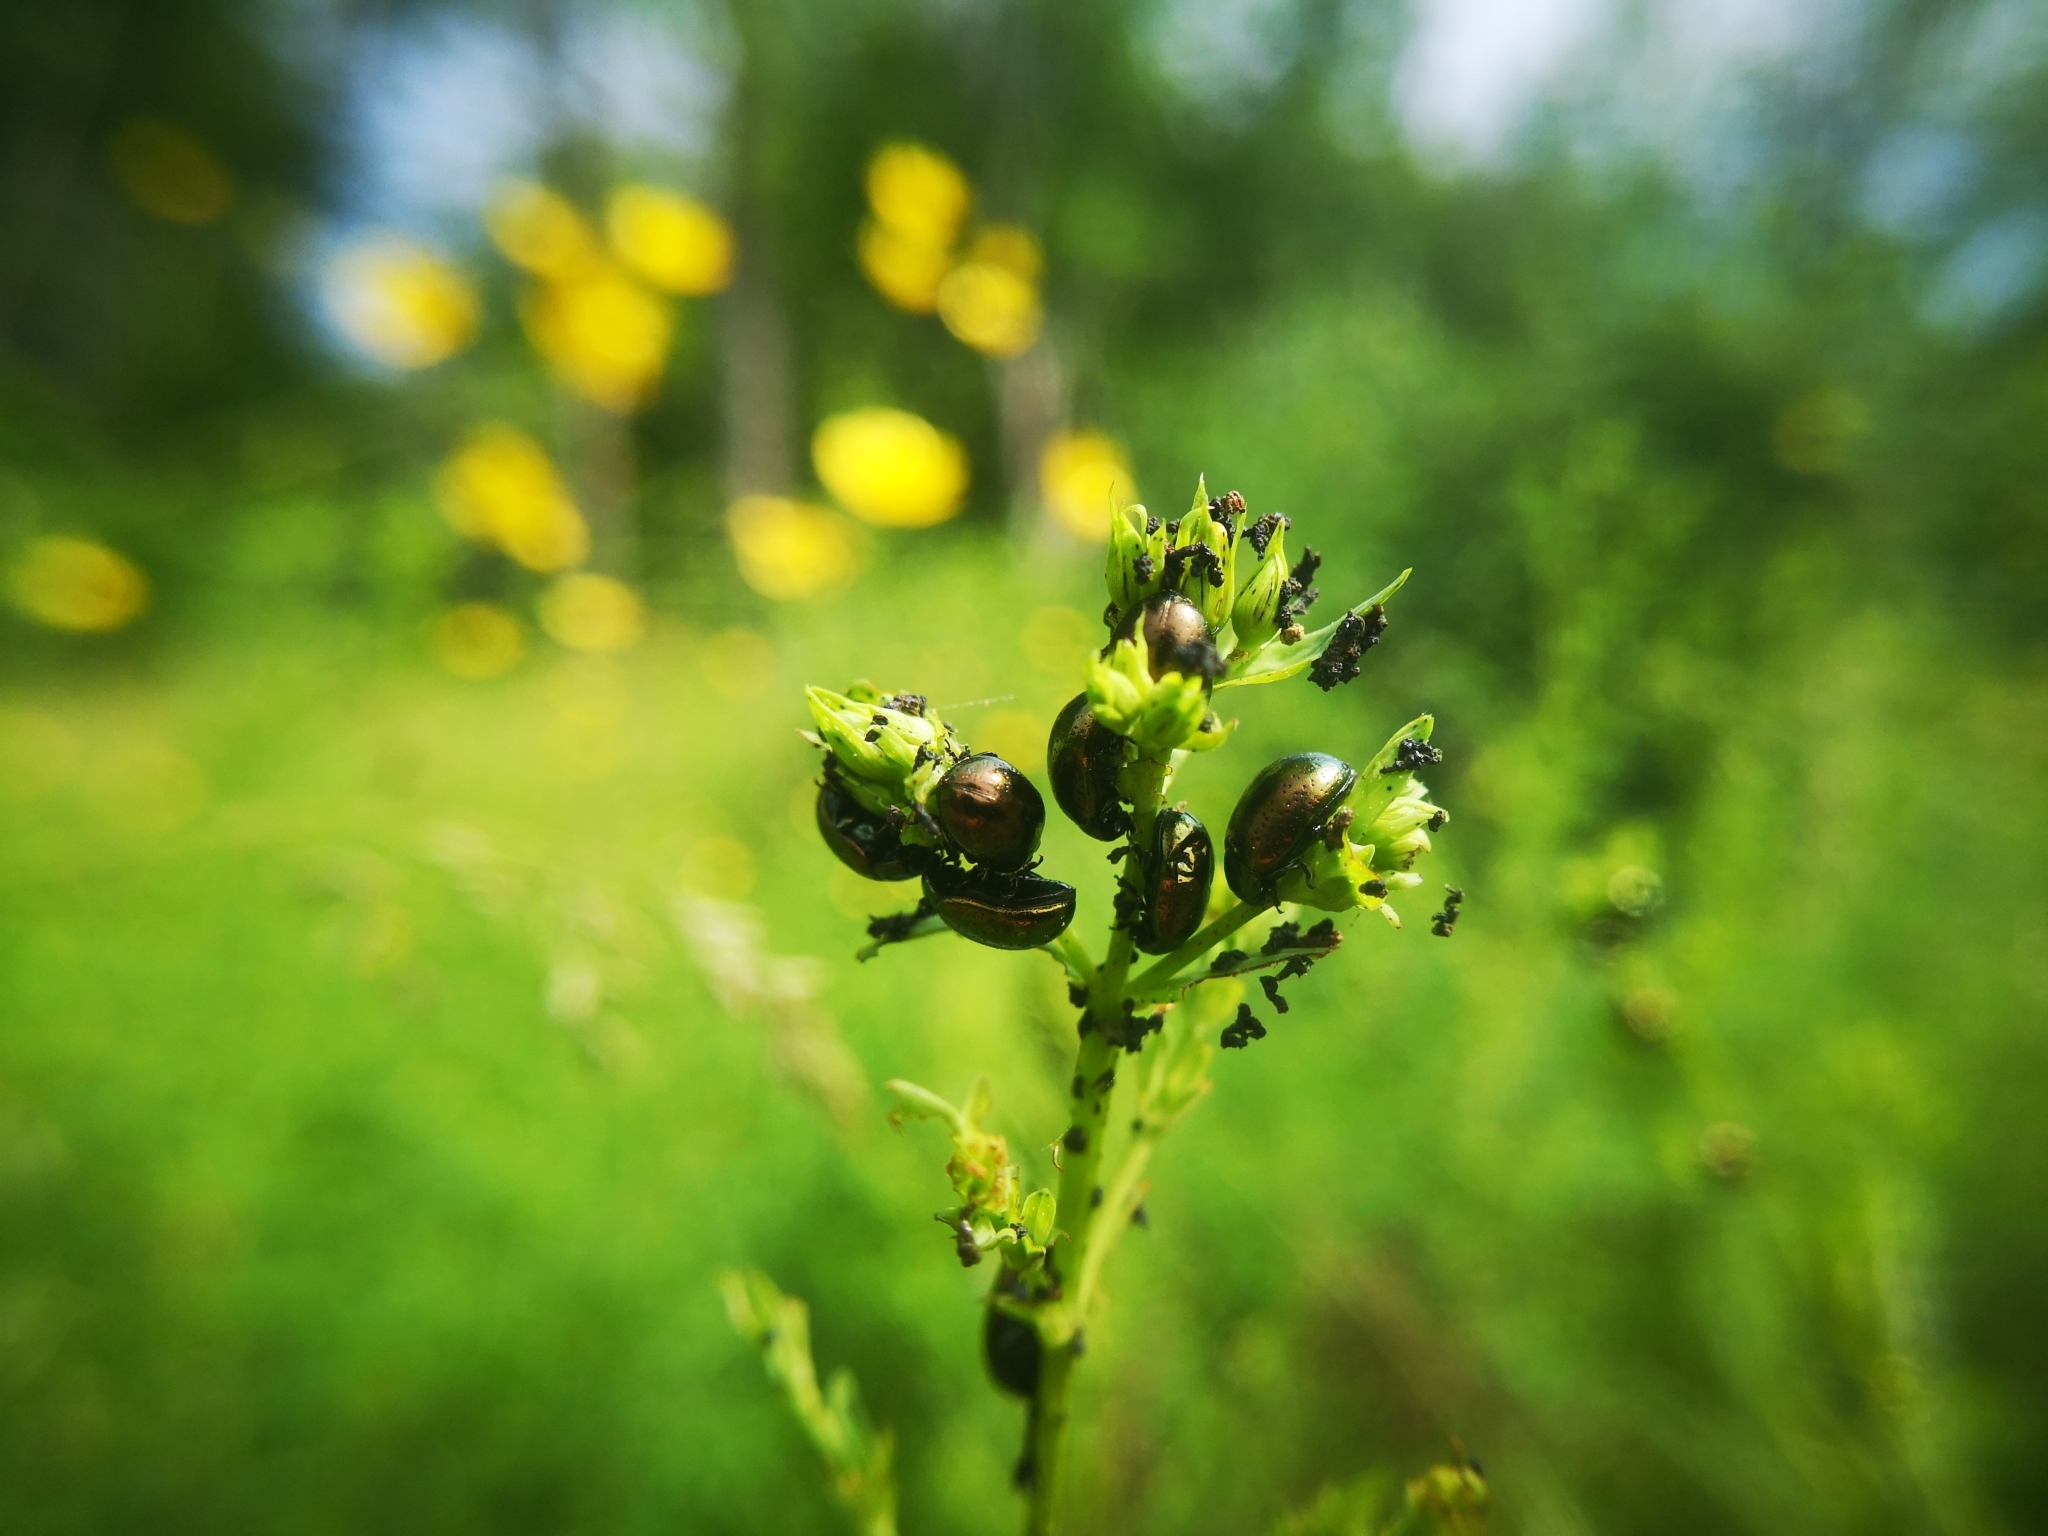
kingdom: Animalia
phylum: Arthropoda
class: Insecta
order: Coleoptera
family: Chrysomelidae
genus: Chrysolina
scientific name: Chrysolina hyperici
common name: St. johnswort beetle
